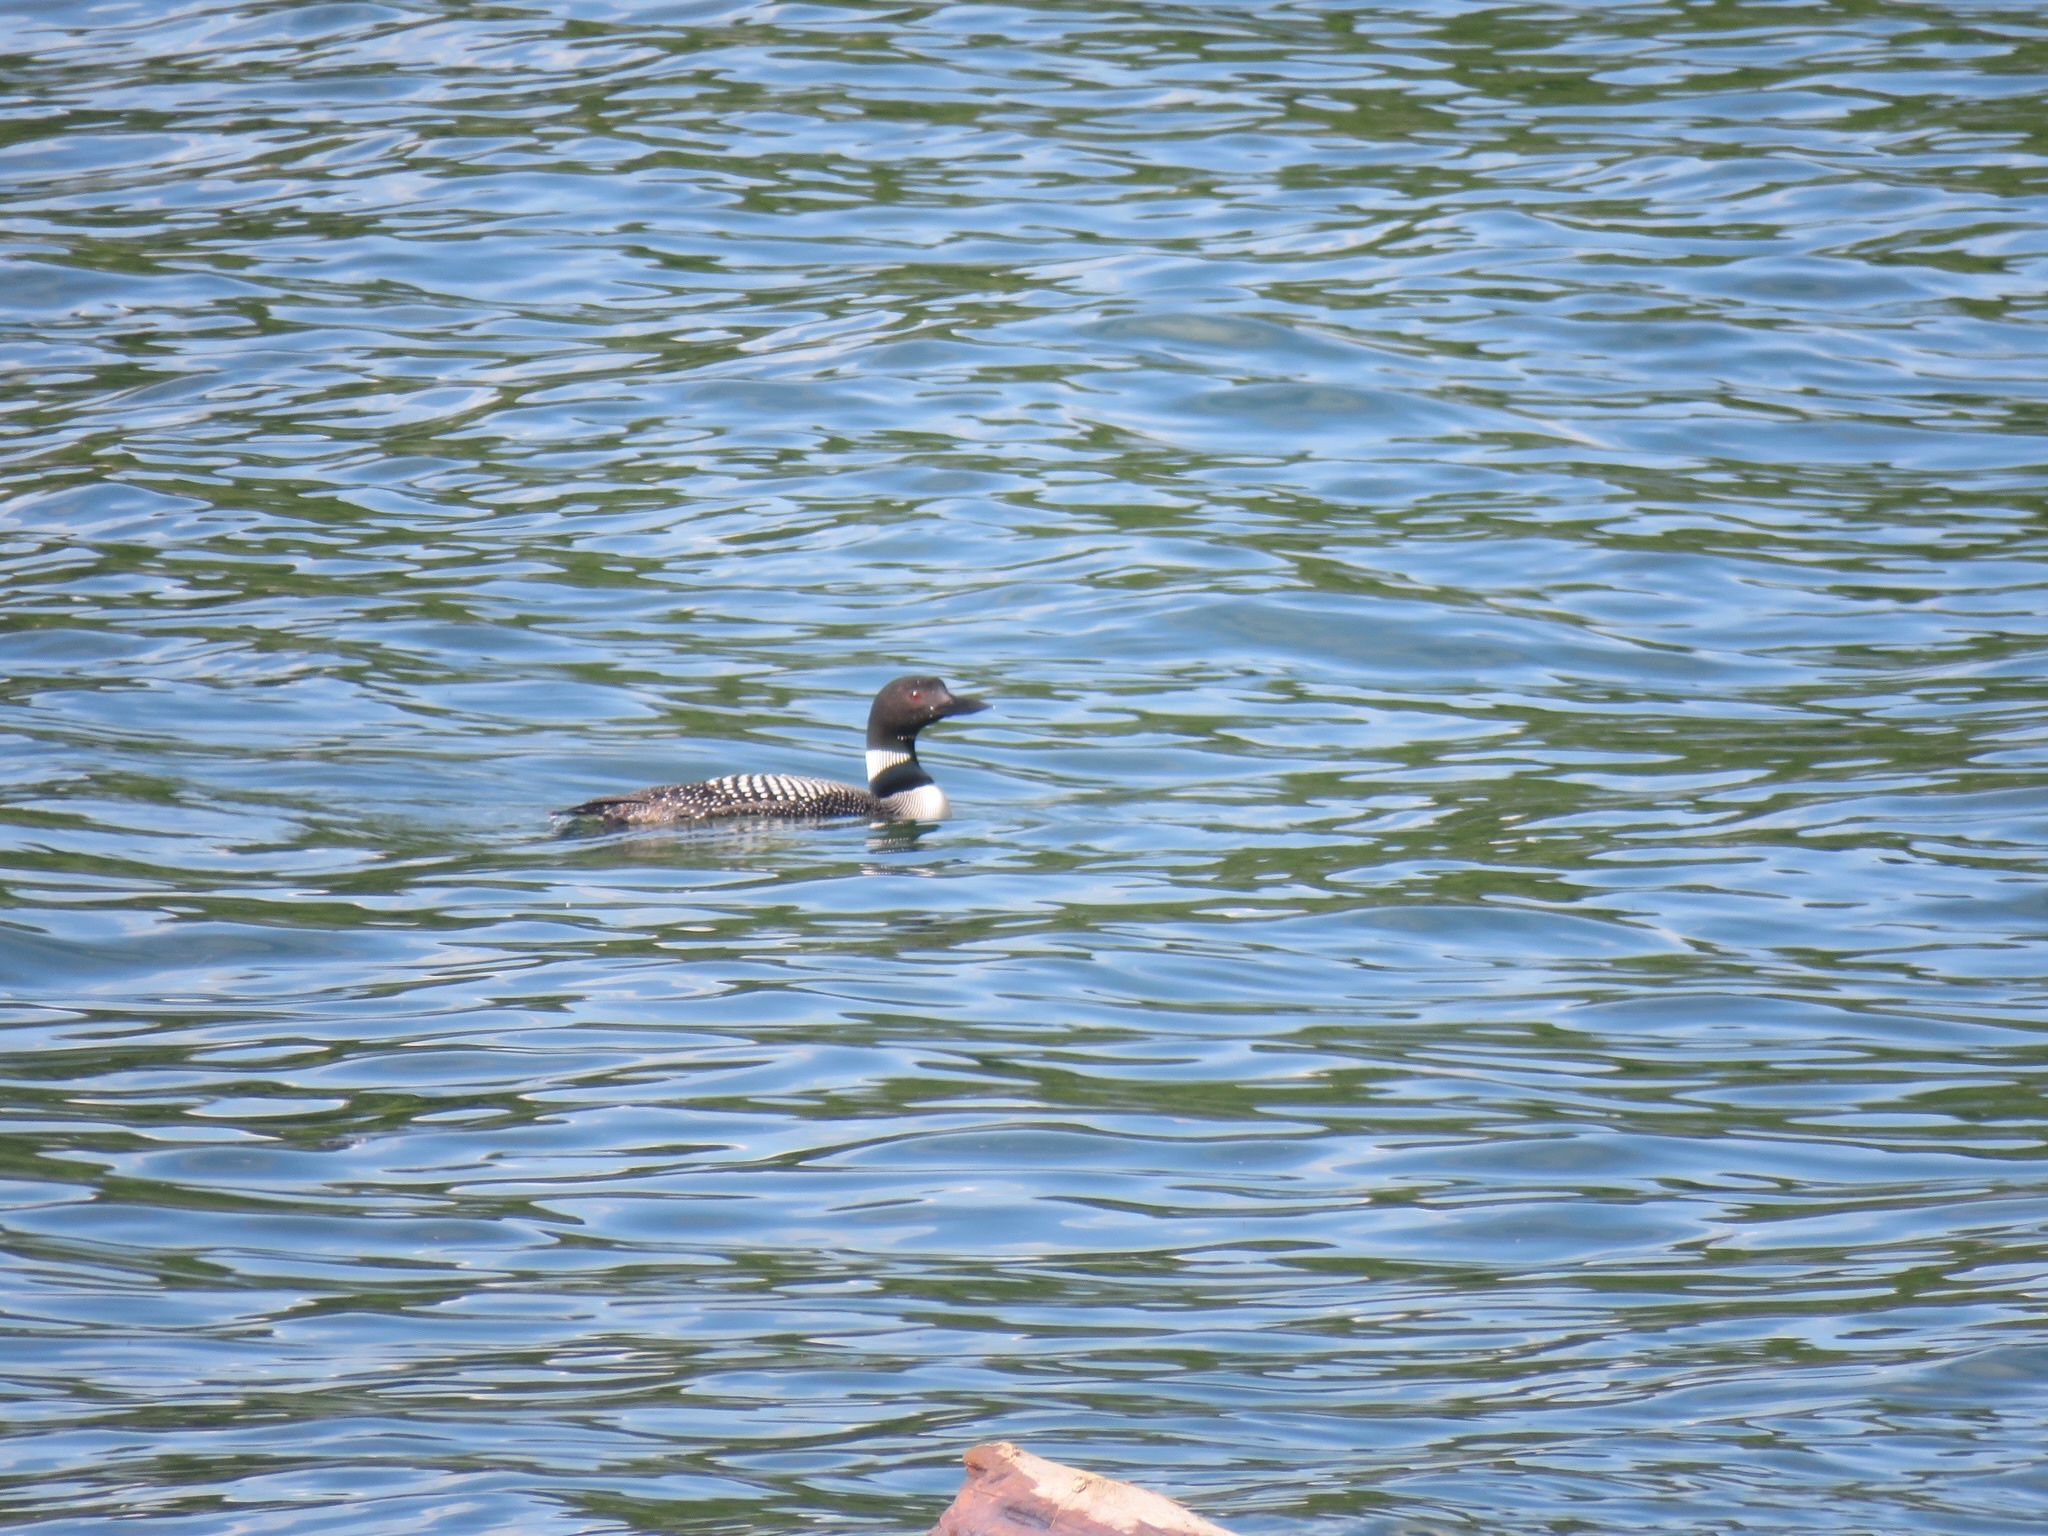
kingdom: Animalia
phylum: Chordata
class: Aves
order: Gaviiformes
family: Gaviidae
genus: Gavia
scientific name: Gavia immer
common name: Common loon
